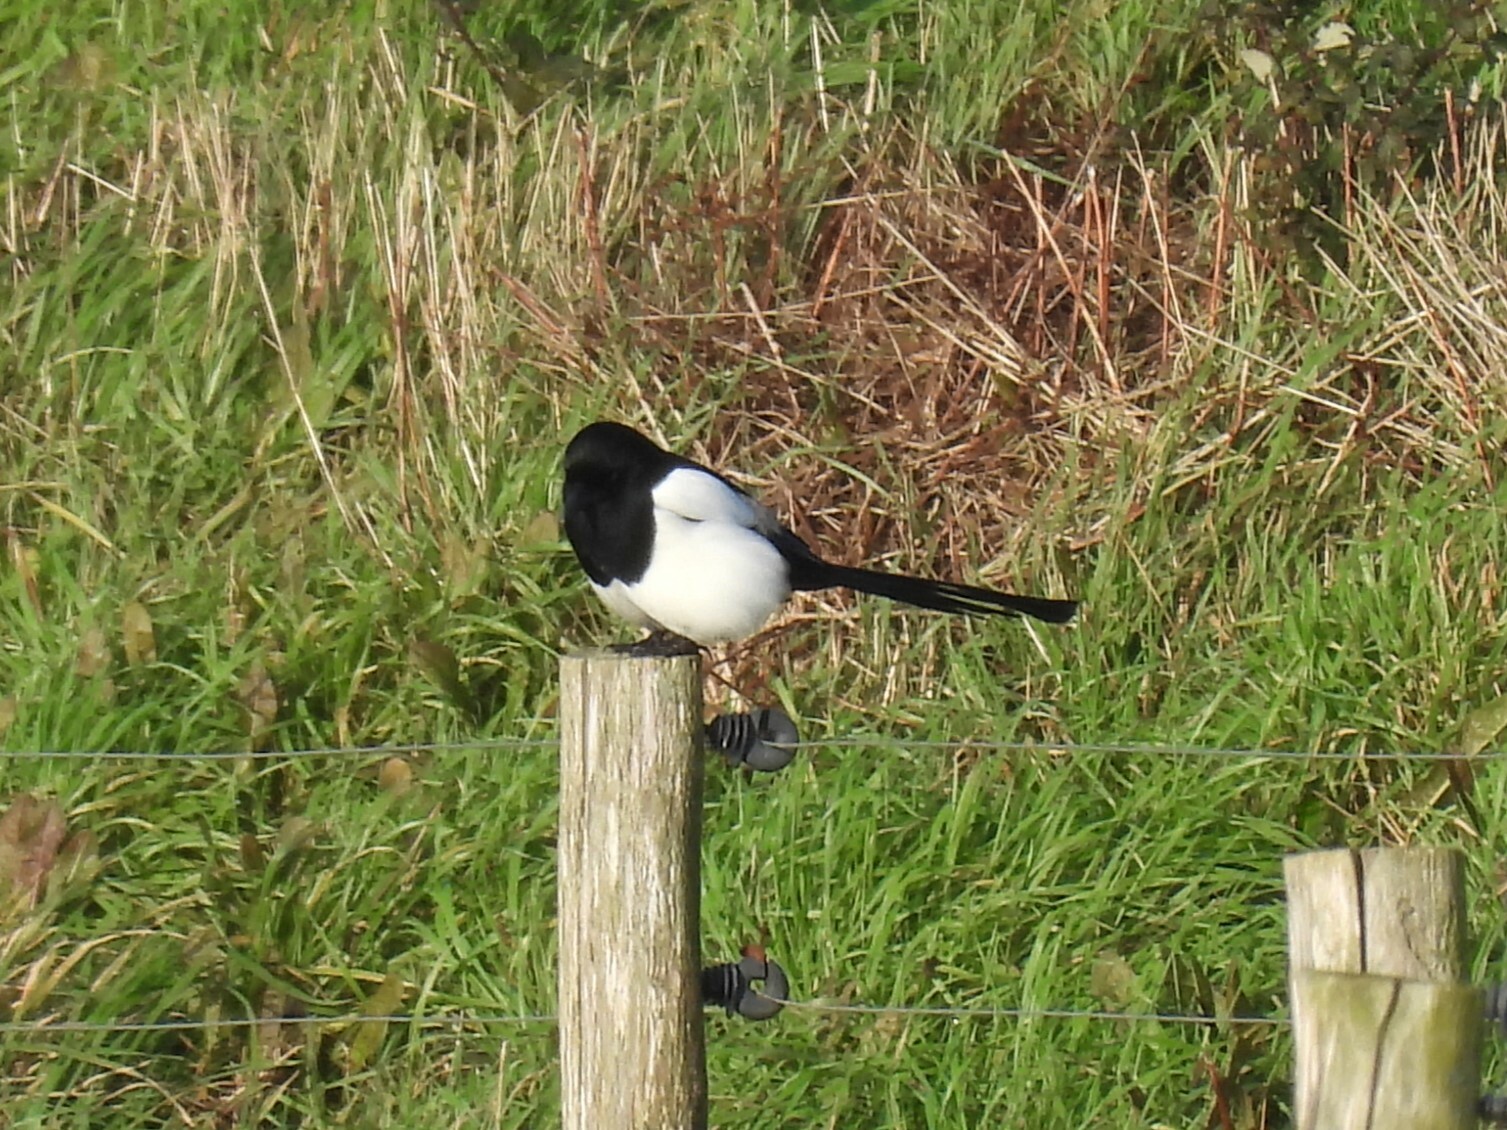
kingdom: Animalia
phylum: Chordata
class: Aves
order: Passeriformes
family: Corvidae
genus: Pica
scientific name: Pica pica
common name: Eurasian magpie
